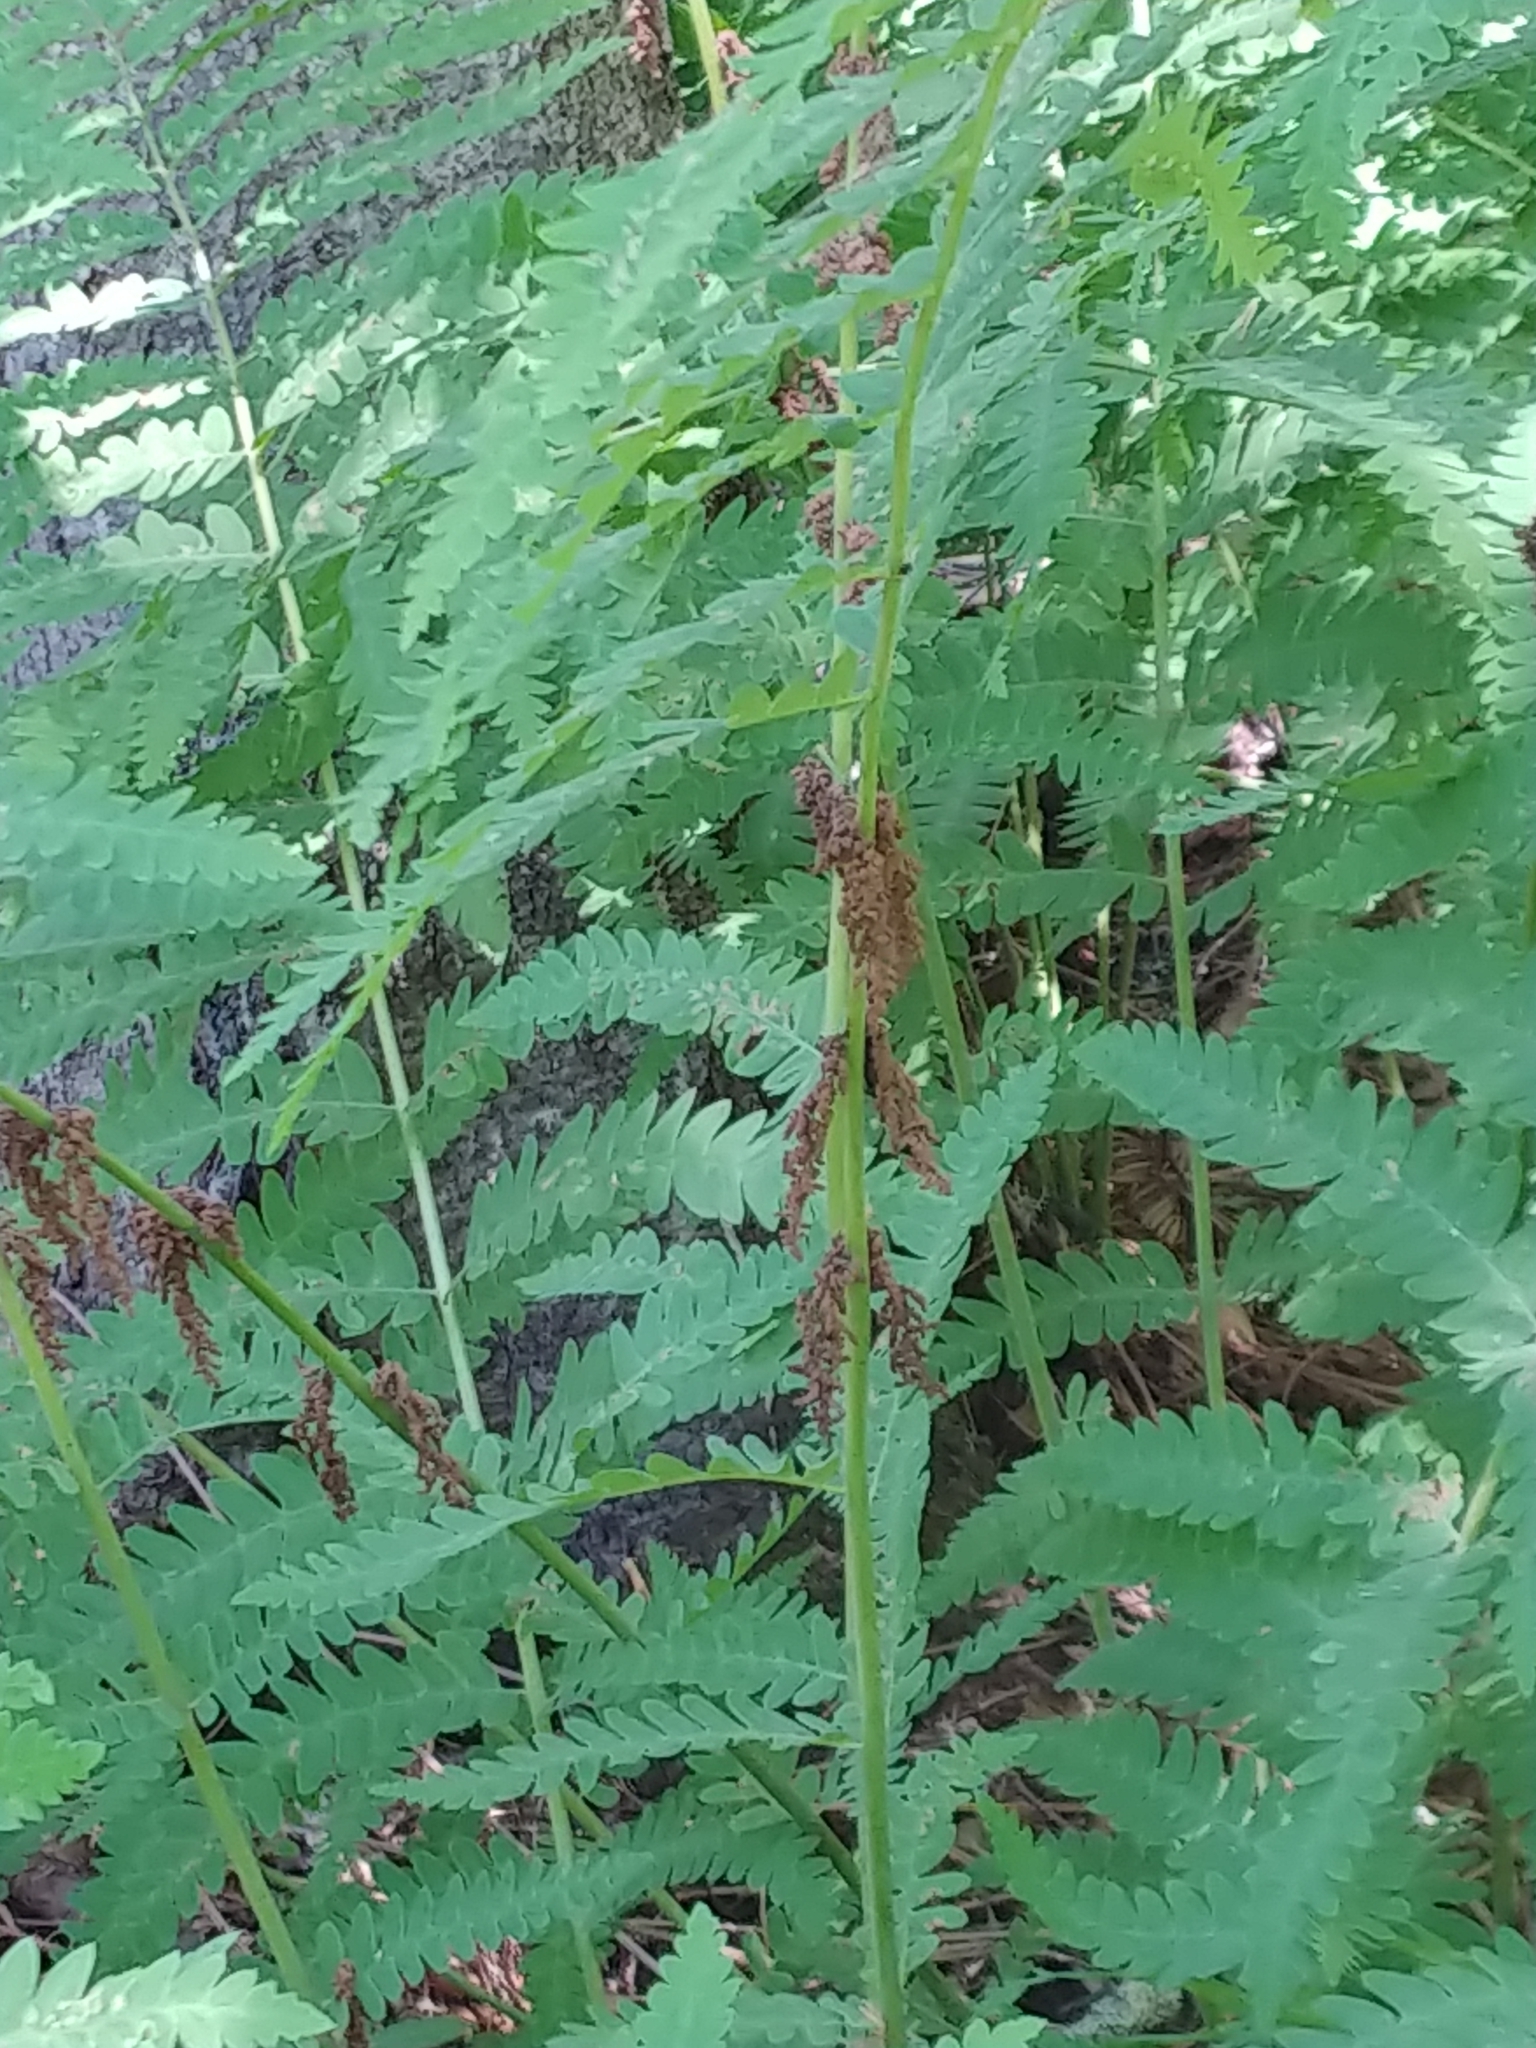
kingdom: Plantae
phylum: Tracheophyta
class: Polypodiopsida
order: Osmundales
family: Osmundaceae
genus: Claytosmunda
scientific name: Claytosmunda claytoniana
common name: Clayton's fern
